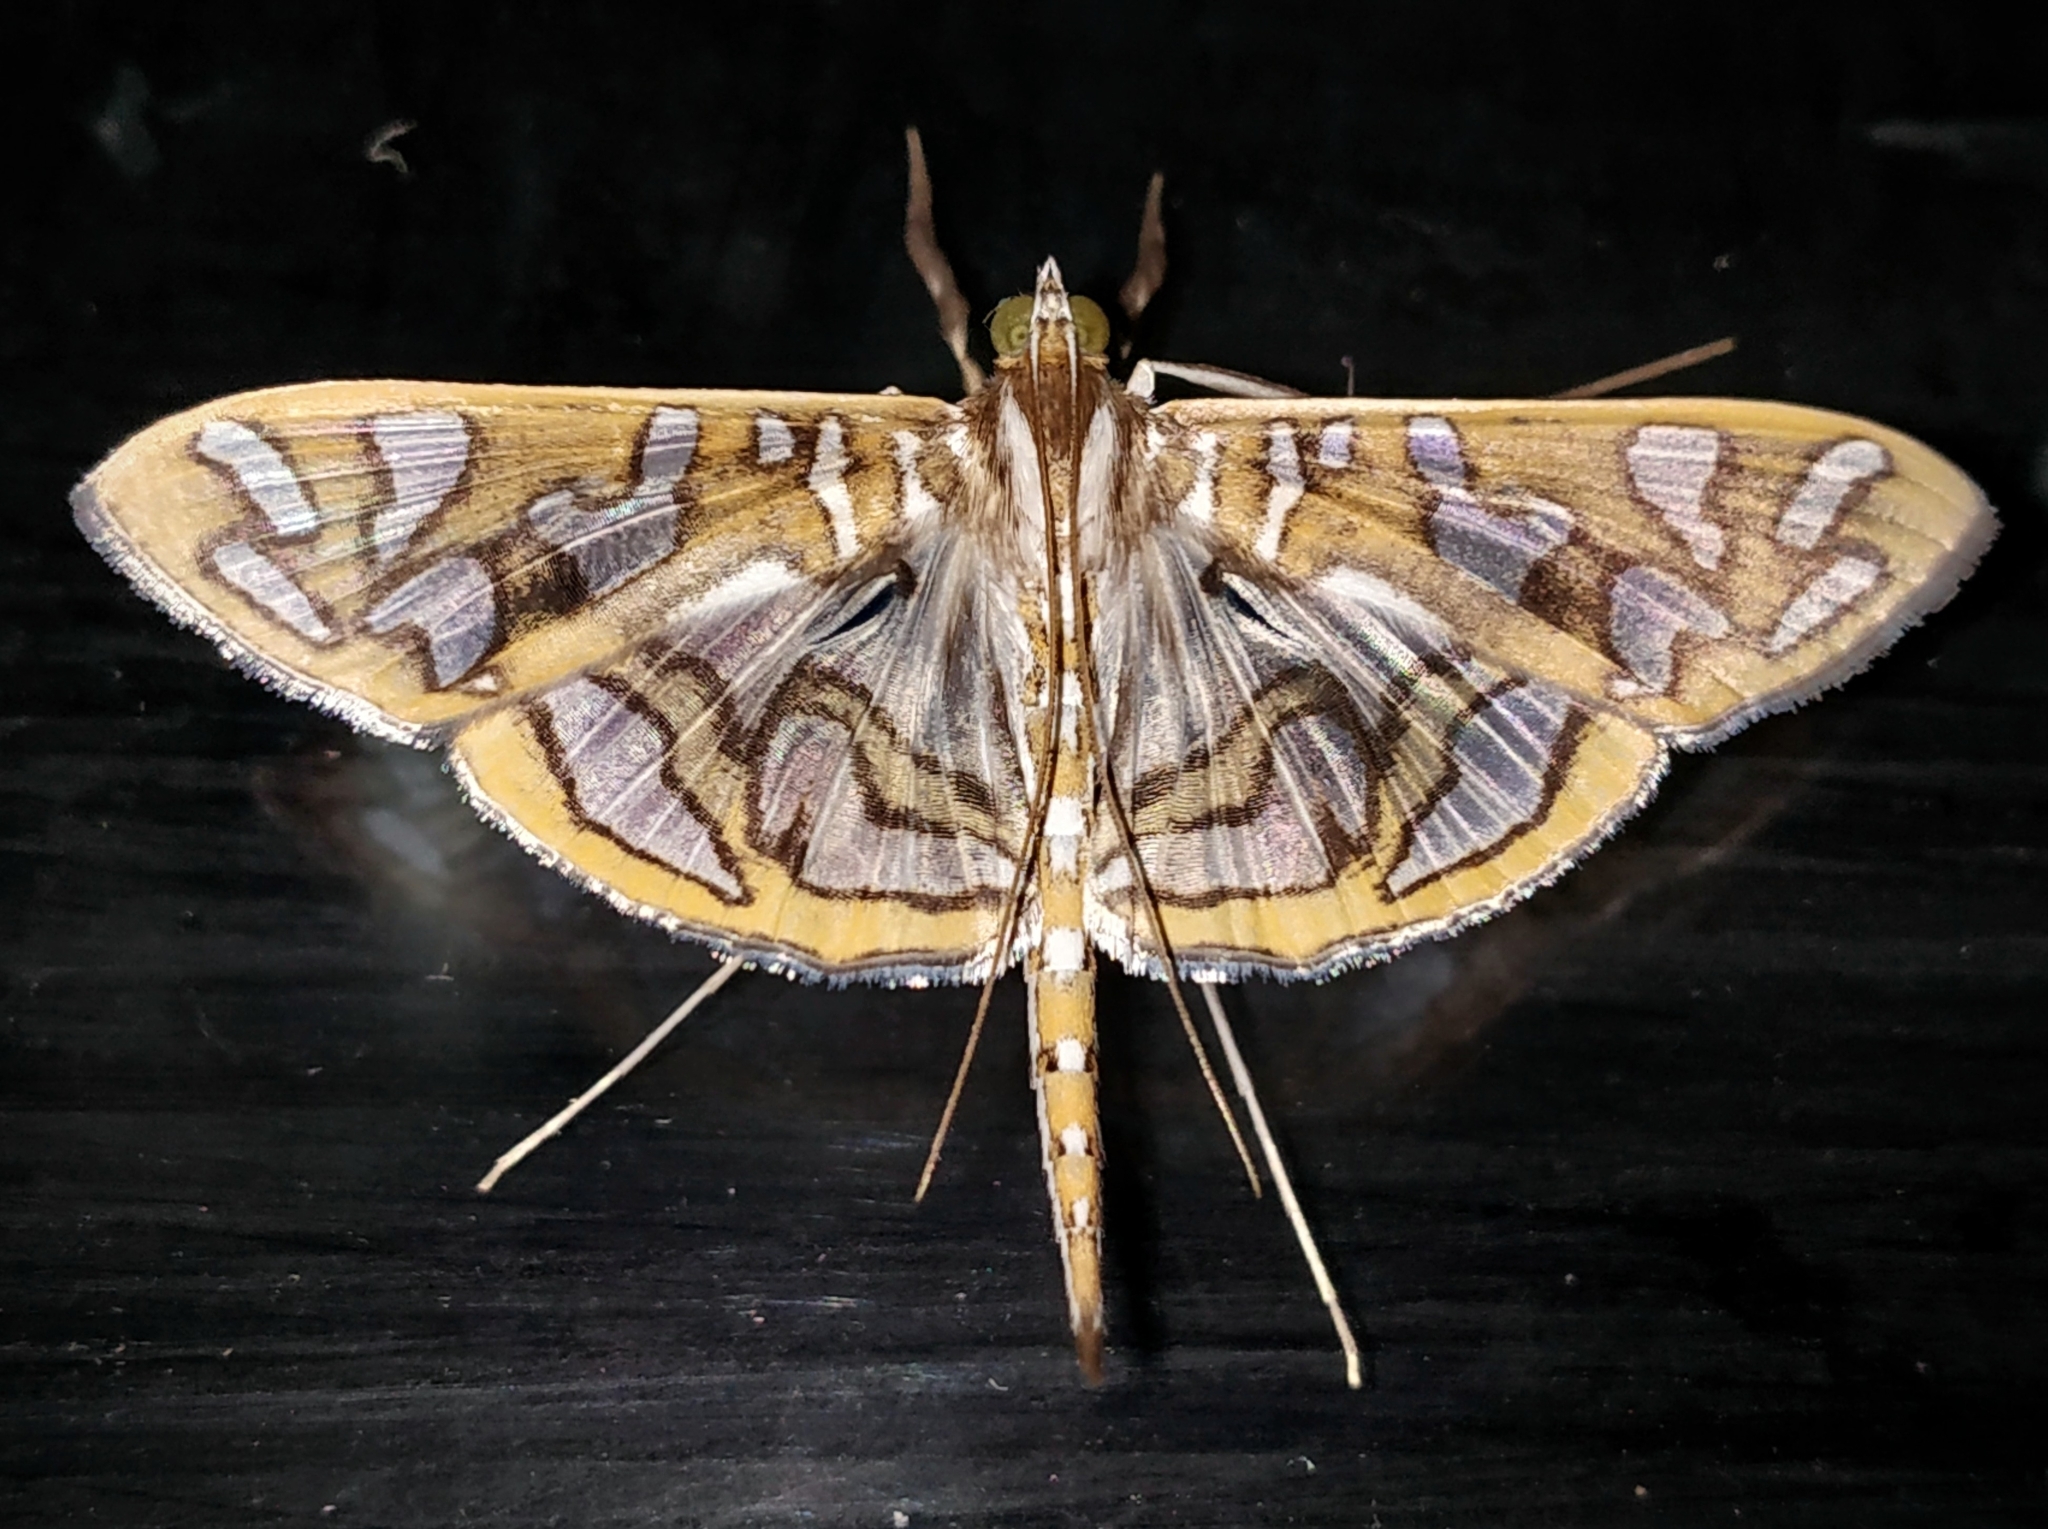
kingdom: Animalia
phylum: Arthropoda
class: Insecta
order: Lepidoptera
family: Crambidae
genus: Nausinoe
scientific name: Nausinoe perspectata
